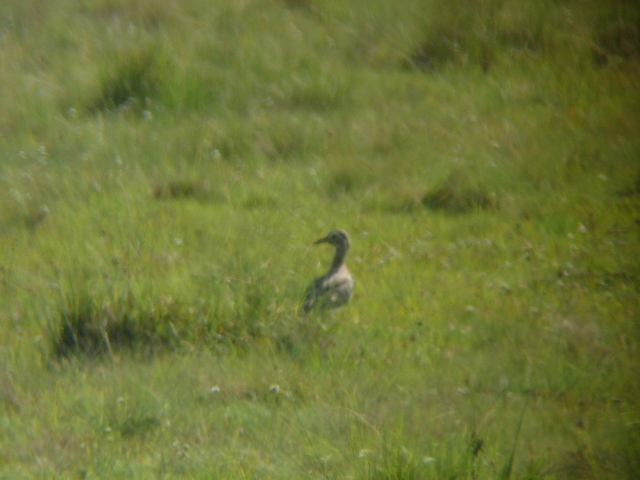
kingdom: Animalia
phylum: Chordata
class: Aves
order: Charadriiformes
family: Burhinidae
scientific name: Burhinidae
